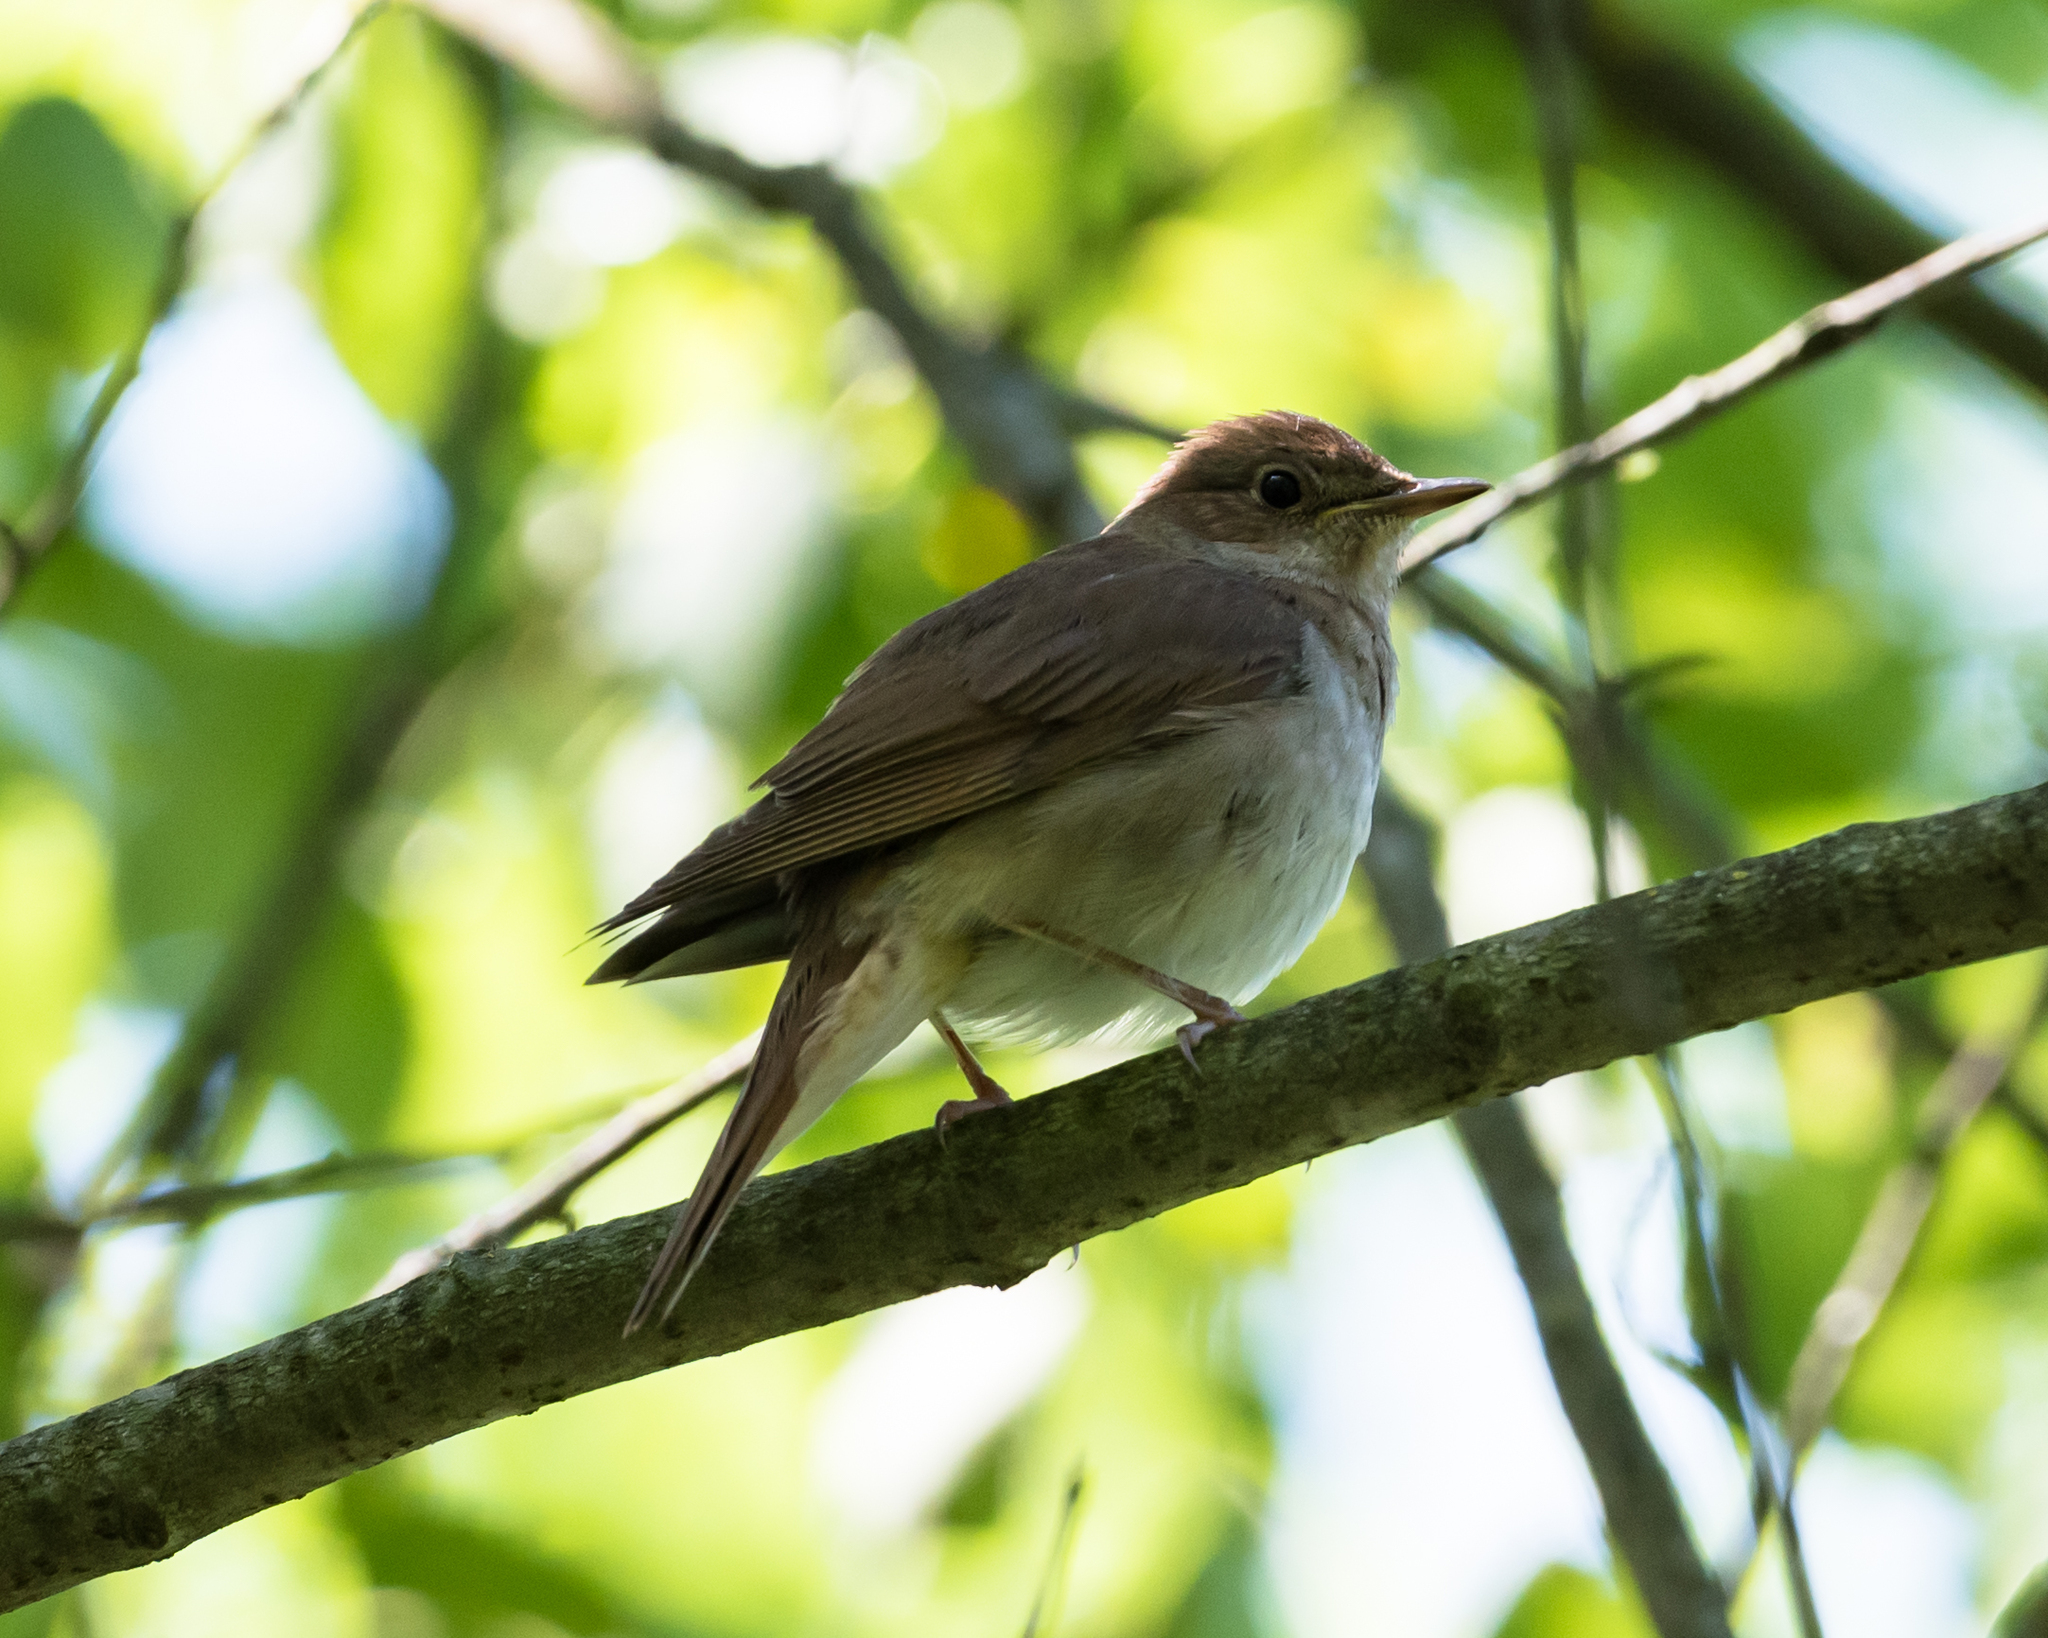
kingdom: Animalia
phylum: Chordata
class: Aves
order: Passeriformes
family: Muscicapidae
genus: Luscinia
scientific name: Luscinia luscinia
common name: Thrush nightingale
